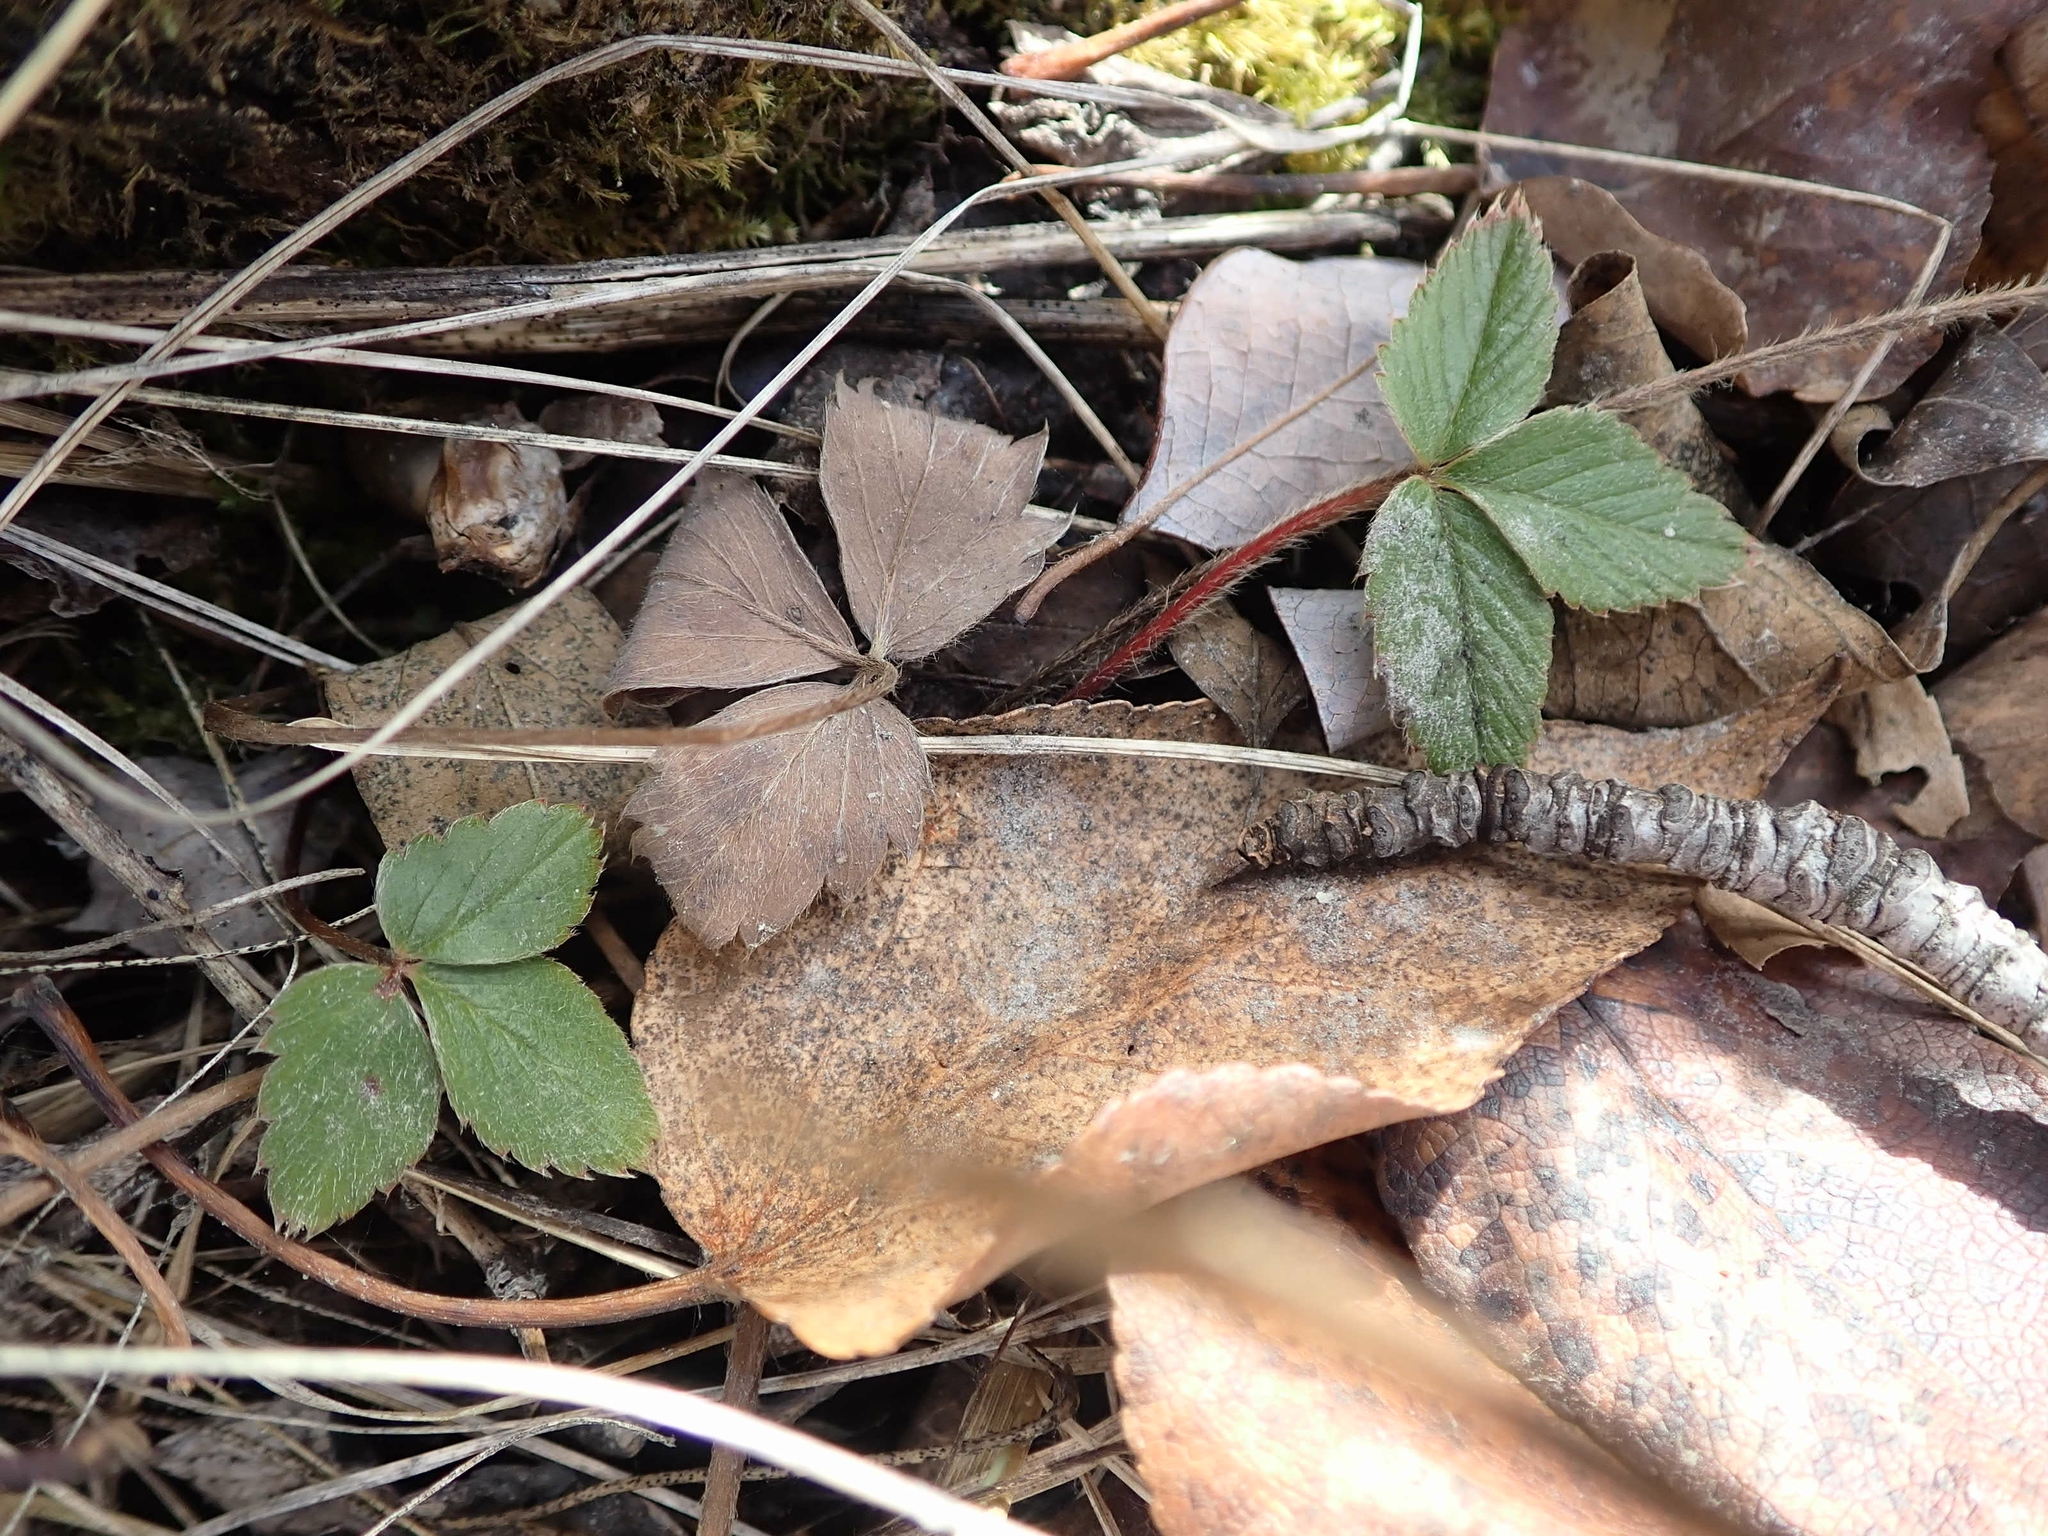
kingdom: Plantae
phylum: Tracheophyta
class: Magnoliopsida
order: Rosales
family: Rosaceae
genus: Fragaria
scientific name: Fragaria virginiana
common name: Thickleaved wild strawberry
